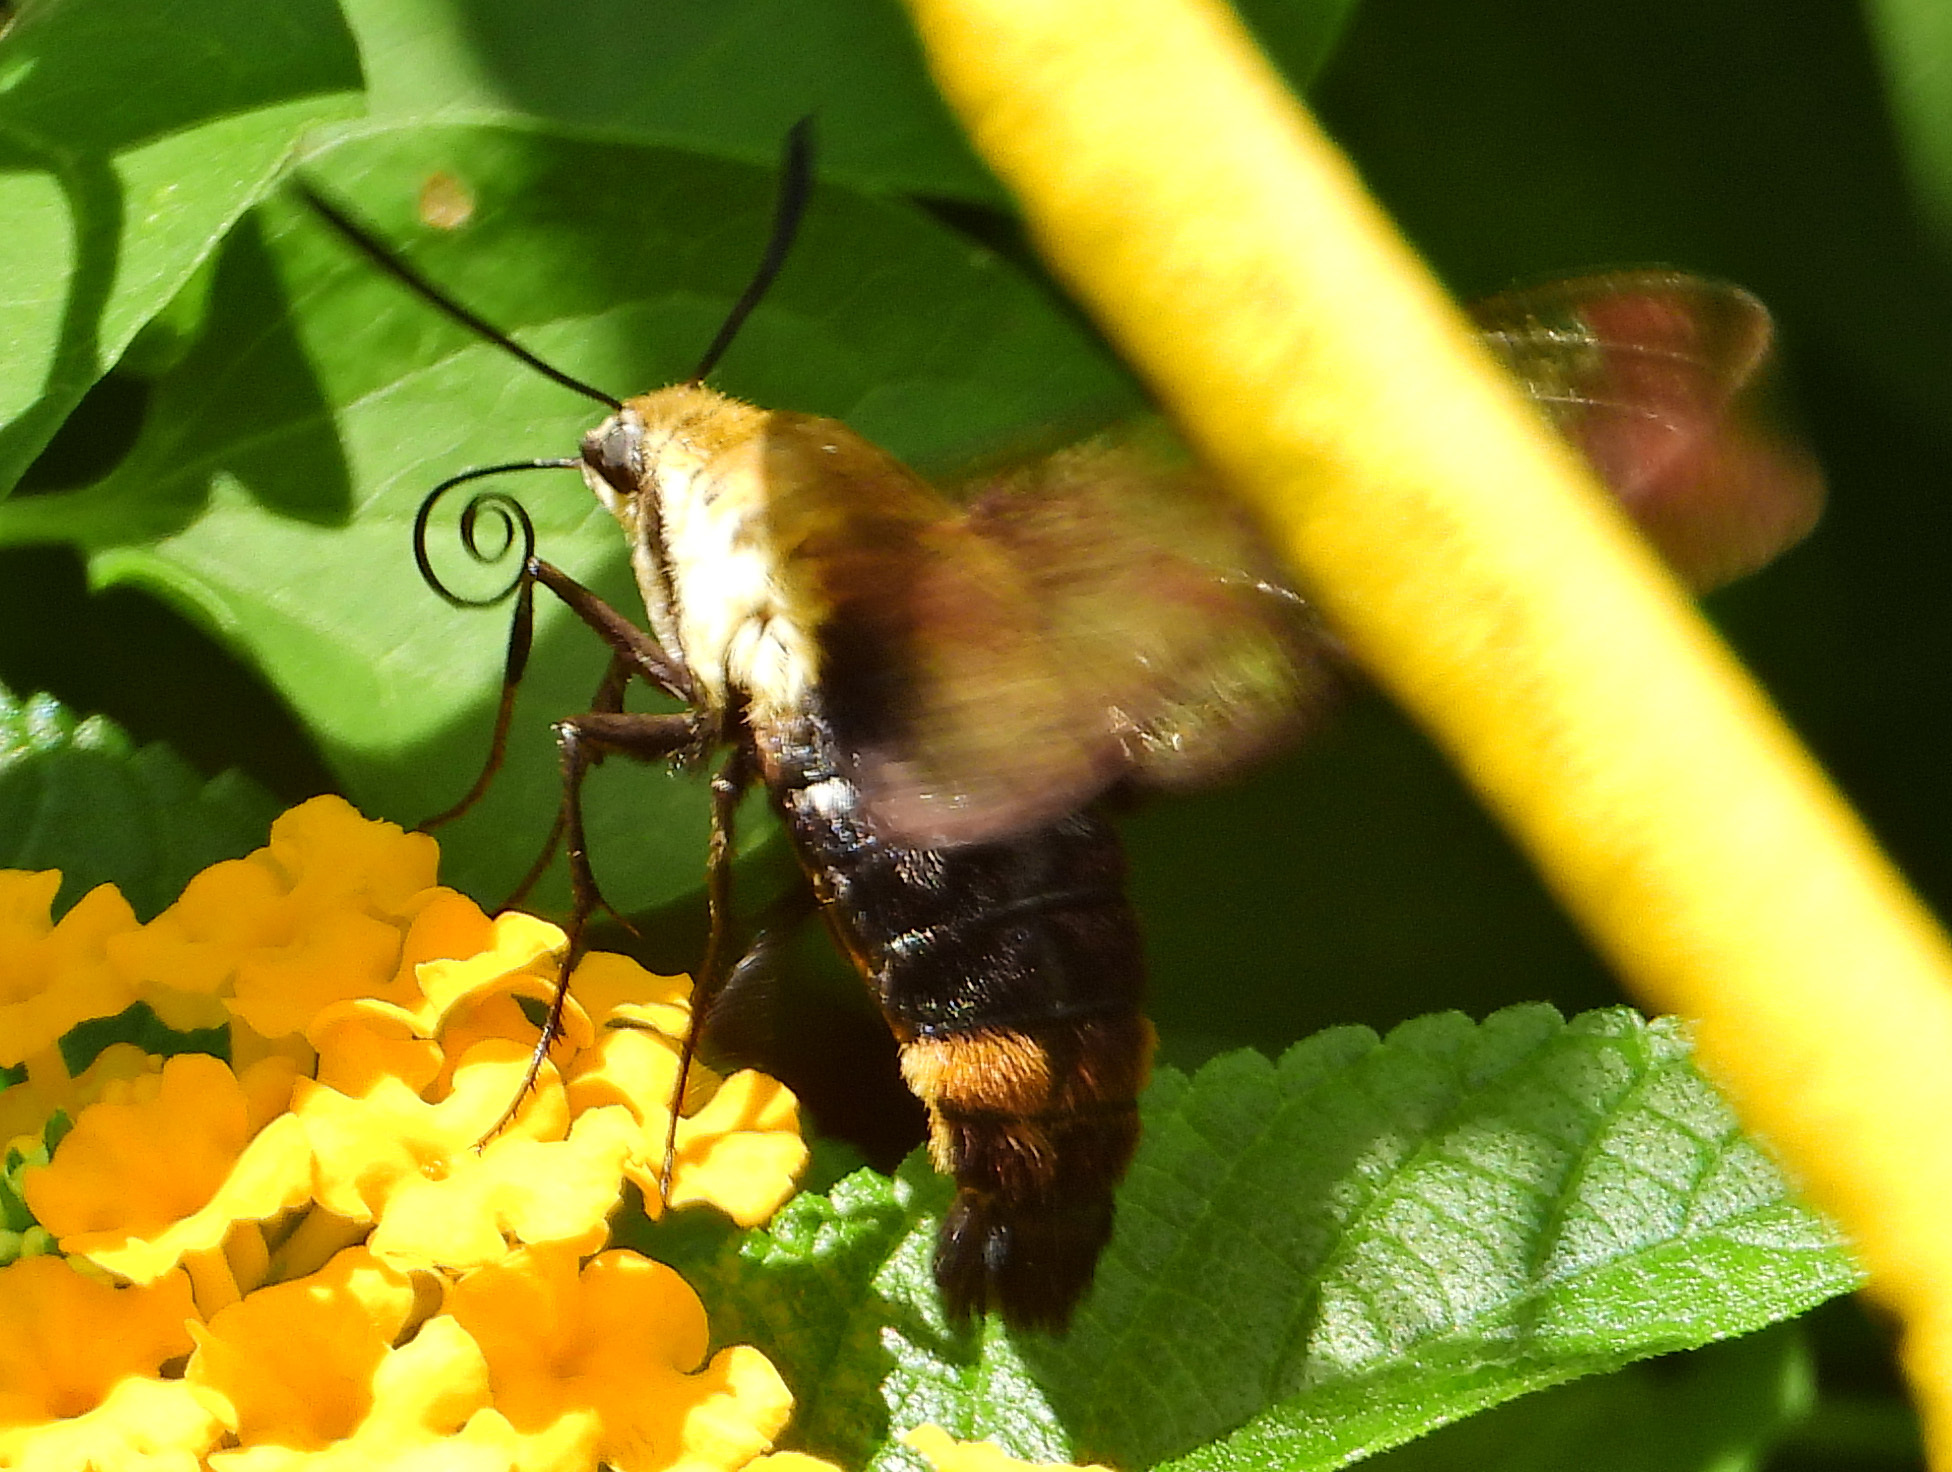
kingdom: Animalia
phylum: Arthropoda
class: Insecta
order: Lepidoptera
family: Sphingidae
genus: Hemaris
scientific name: Hemaris diffinis
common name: Bumblebee moth
